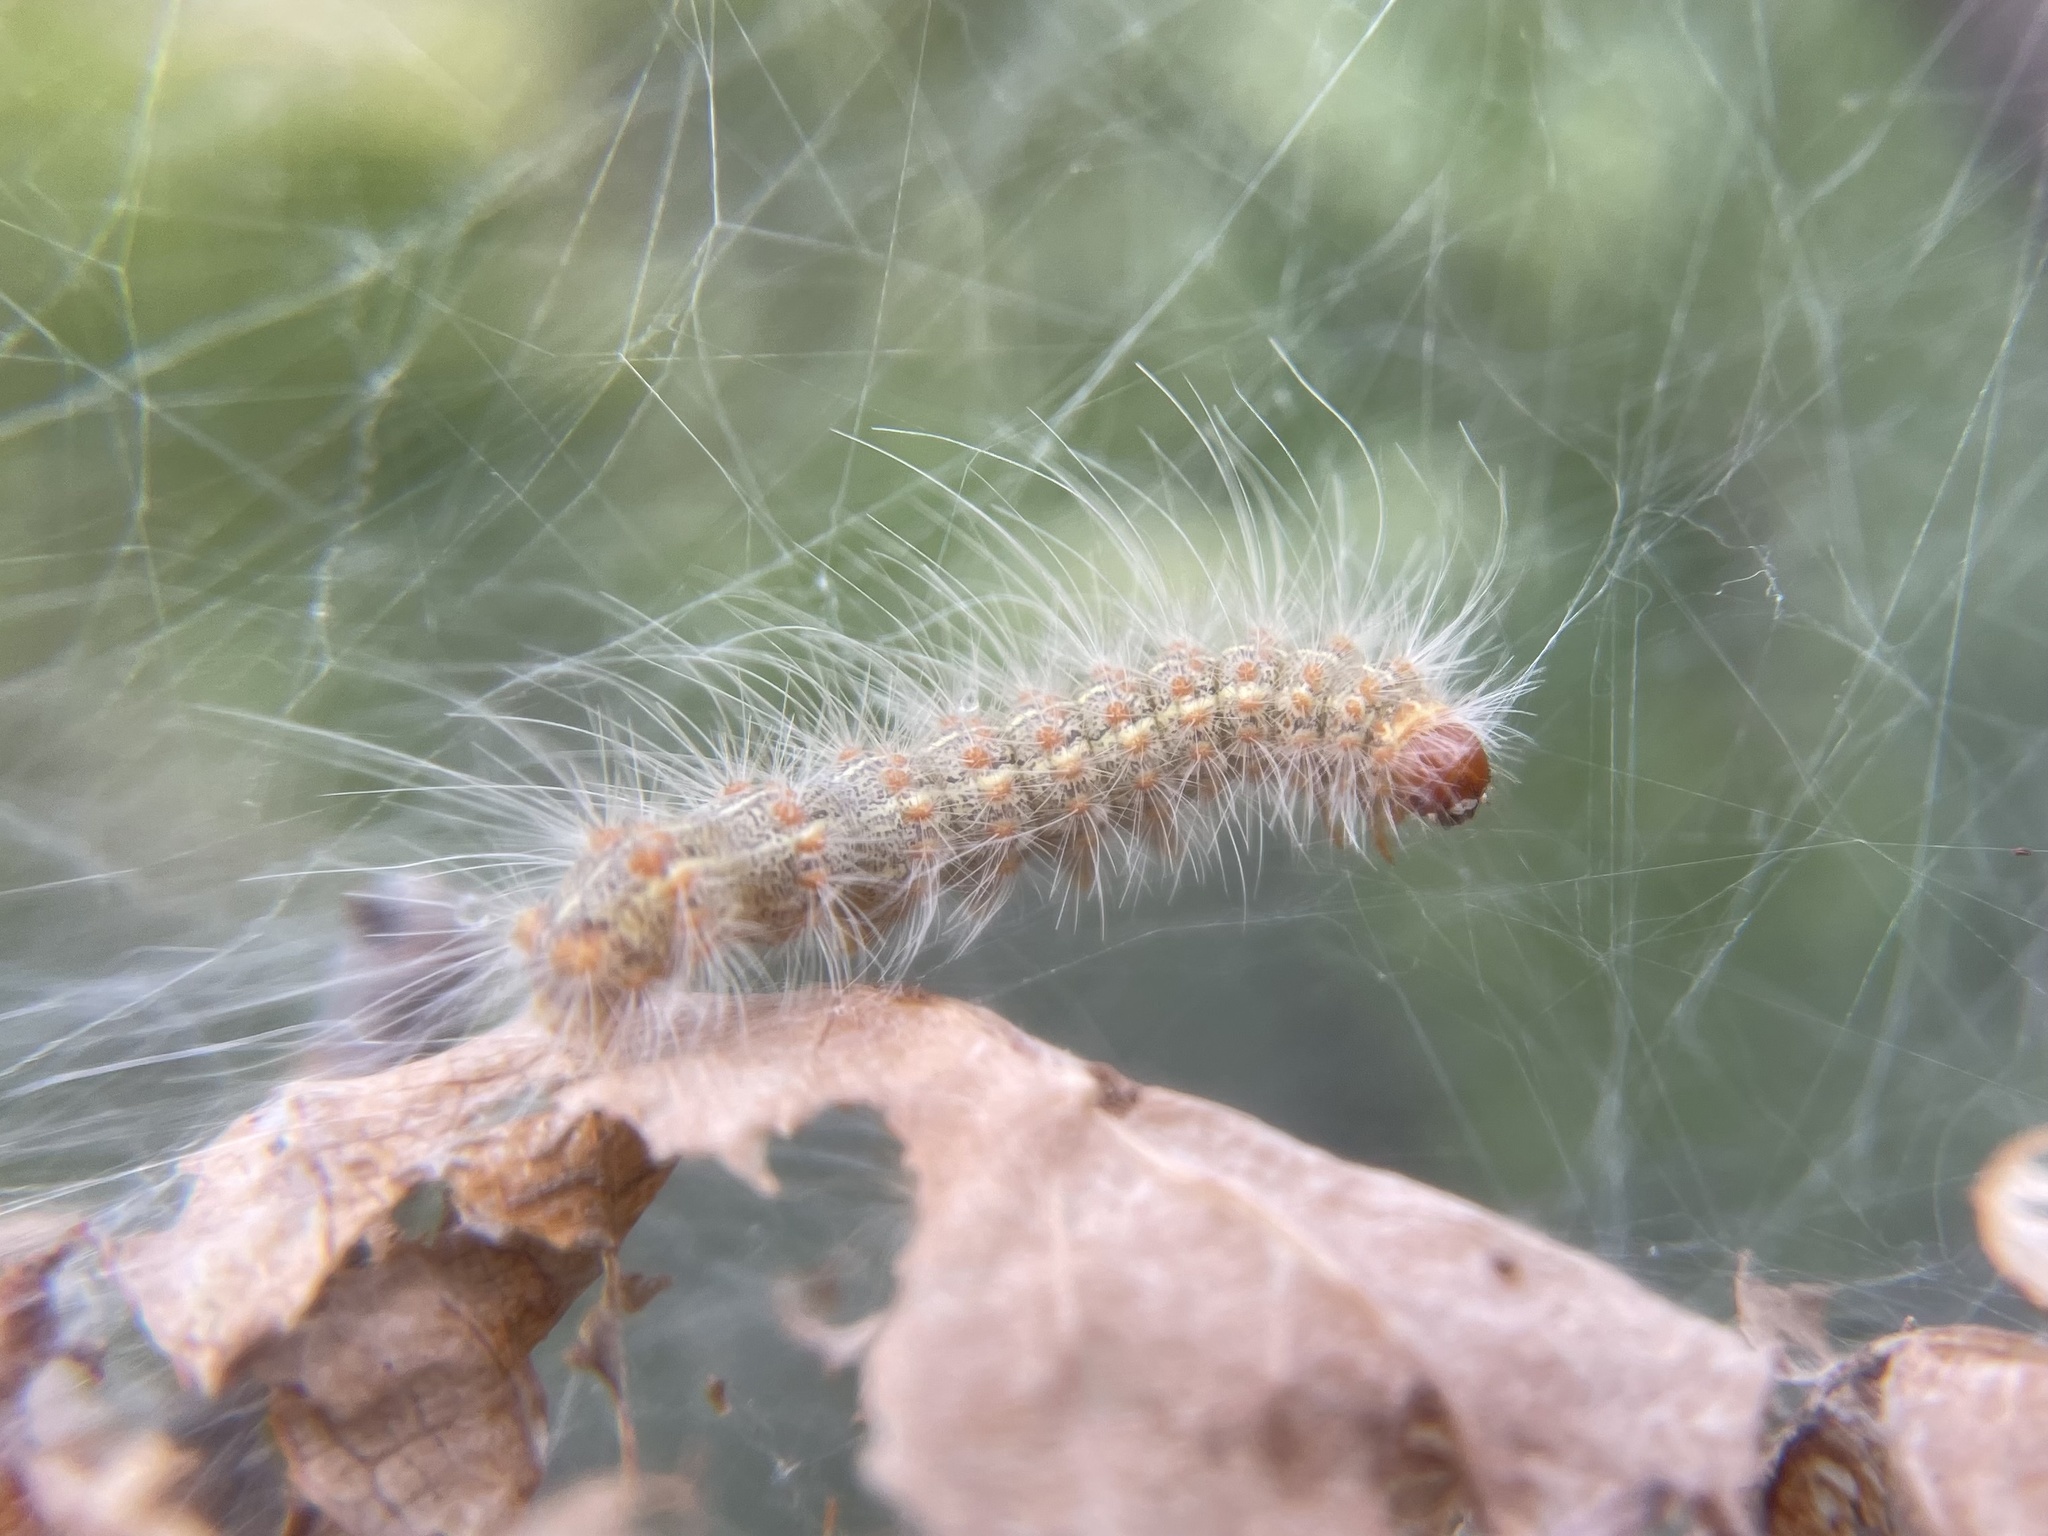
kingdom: Animalia
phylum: Arthropoda
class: Insecta
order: Lepidoptera
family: Erebidae
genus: Hyphantria
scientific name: Hyphantria cunea
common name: American white moth
